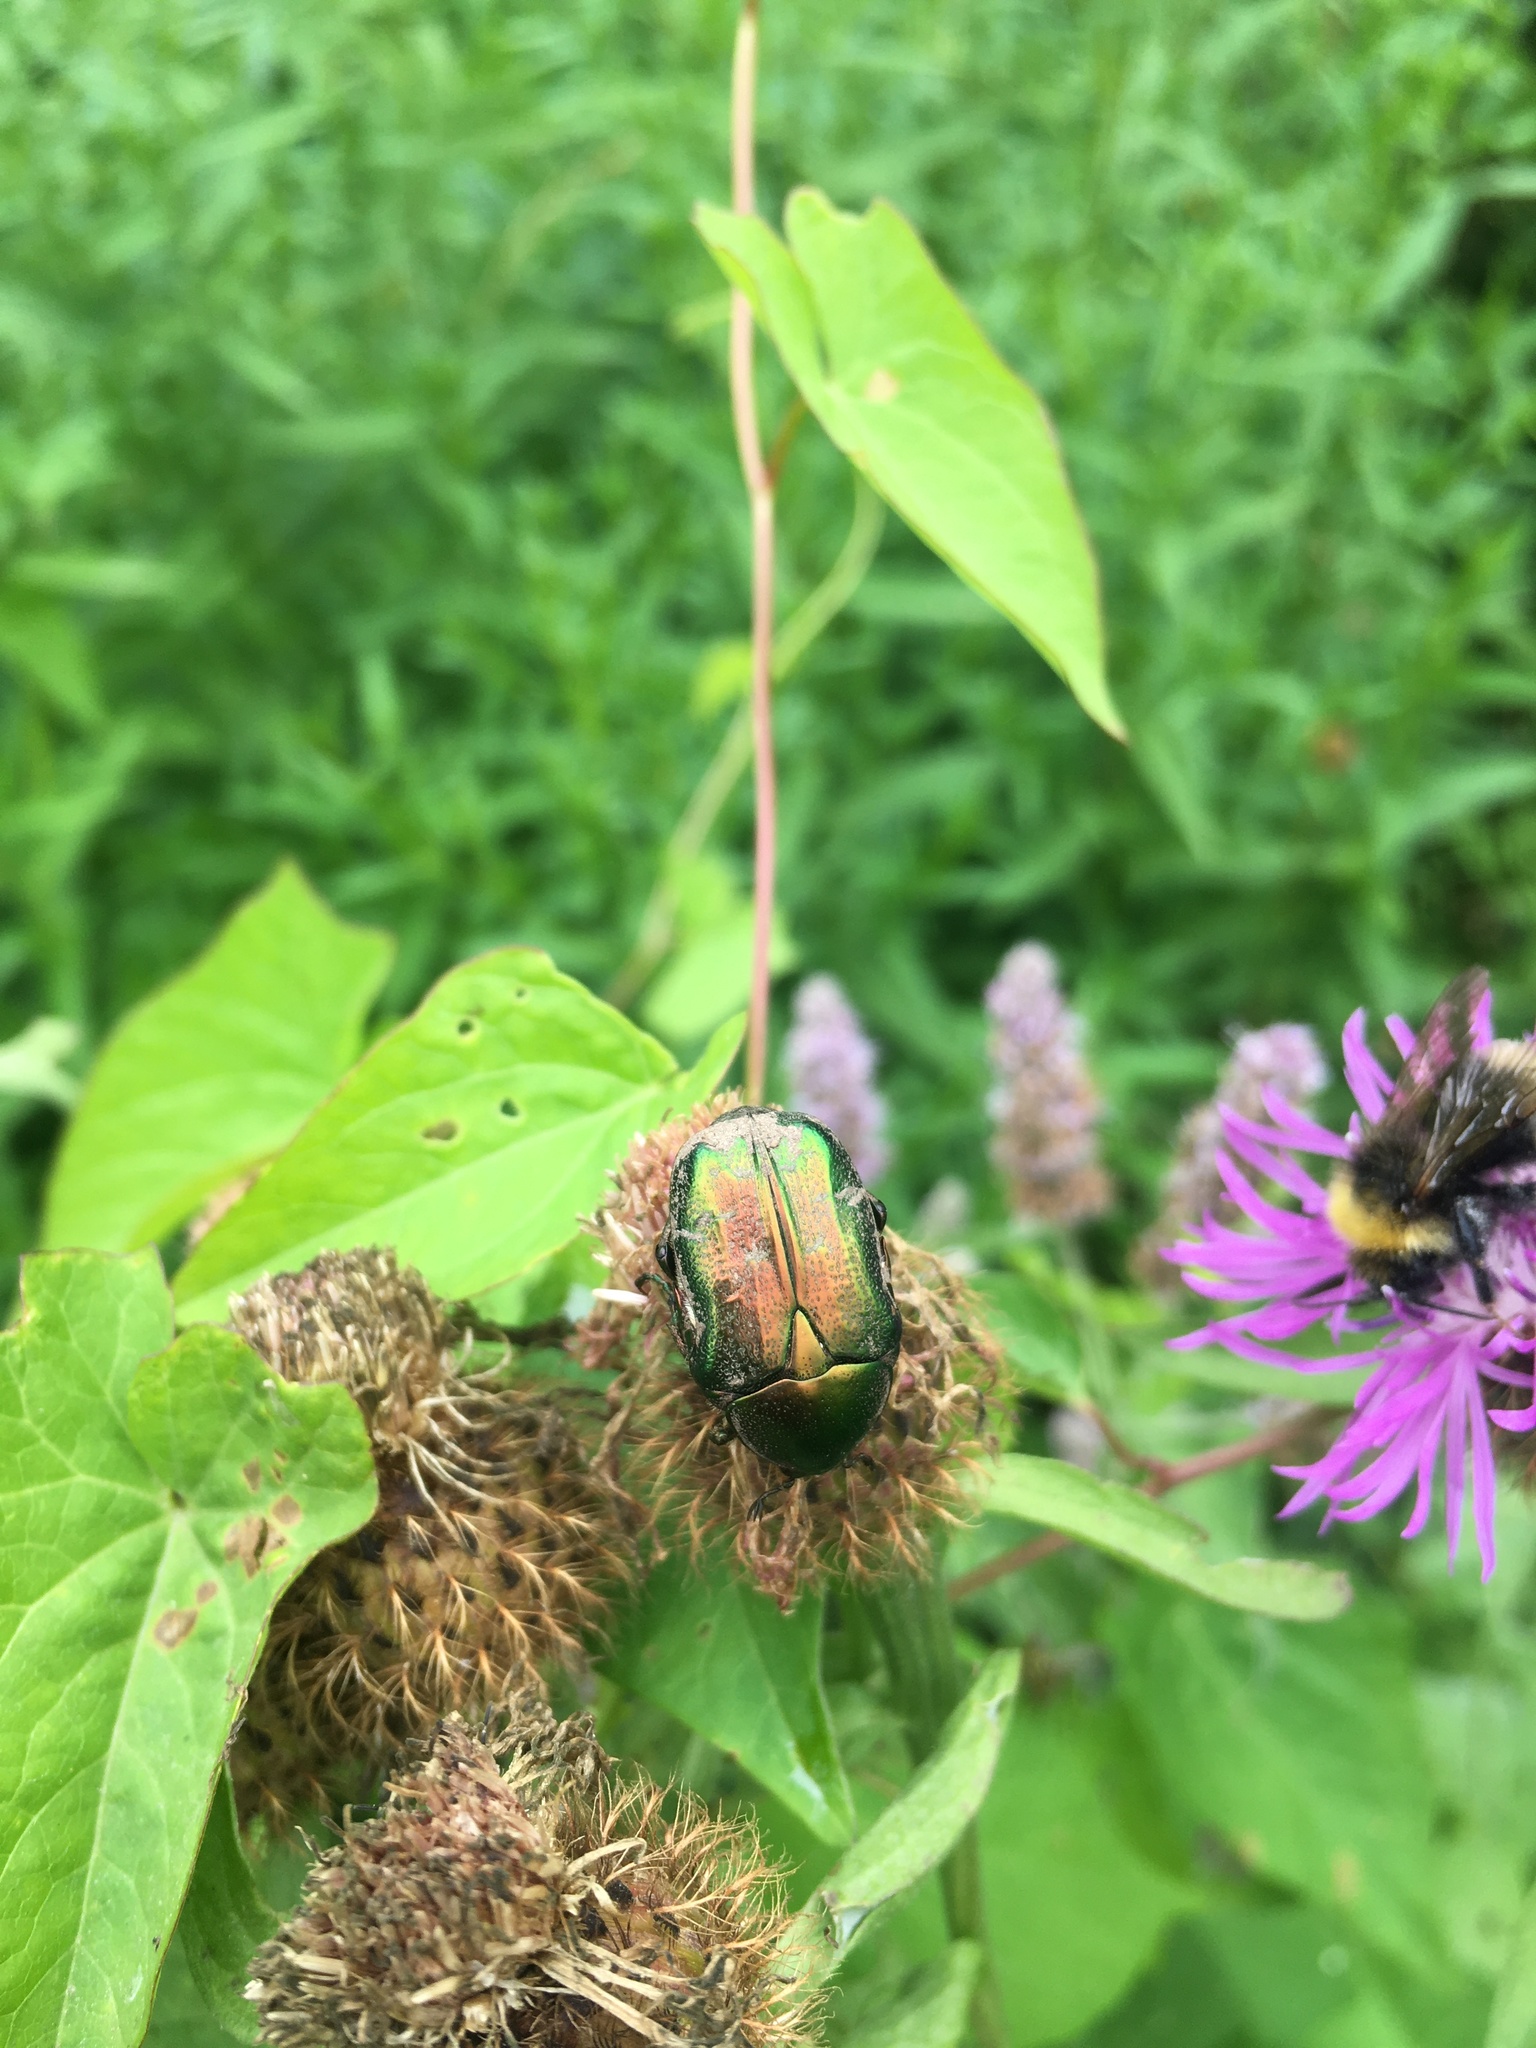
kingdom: Animalia
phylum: Arthropoda
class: Insecta
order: Coleoptera
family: Scarabaeidae
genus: Cetonia
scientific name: Cetonia aurata
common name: Rose chafer
